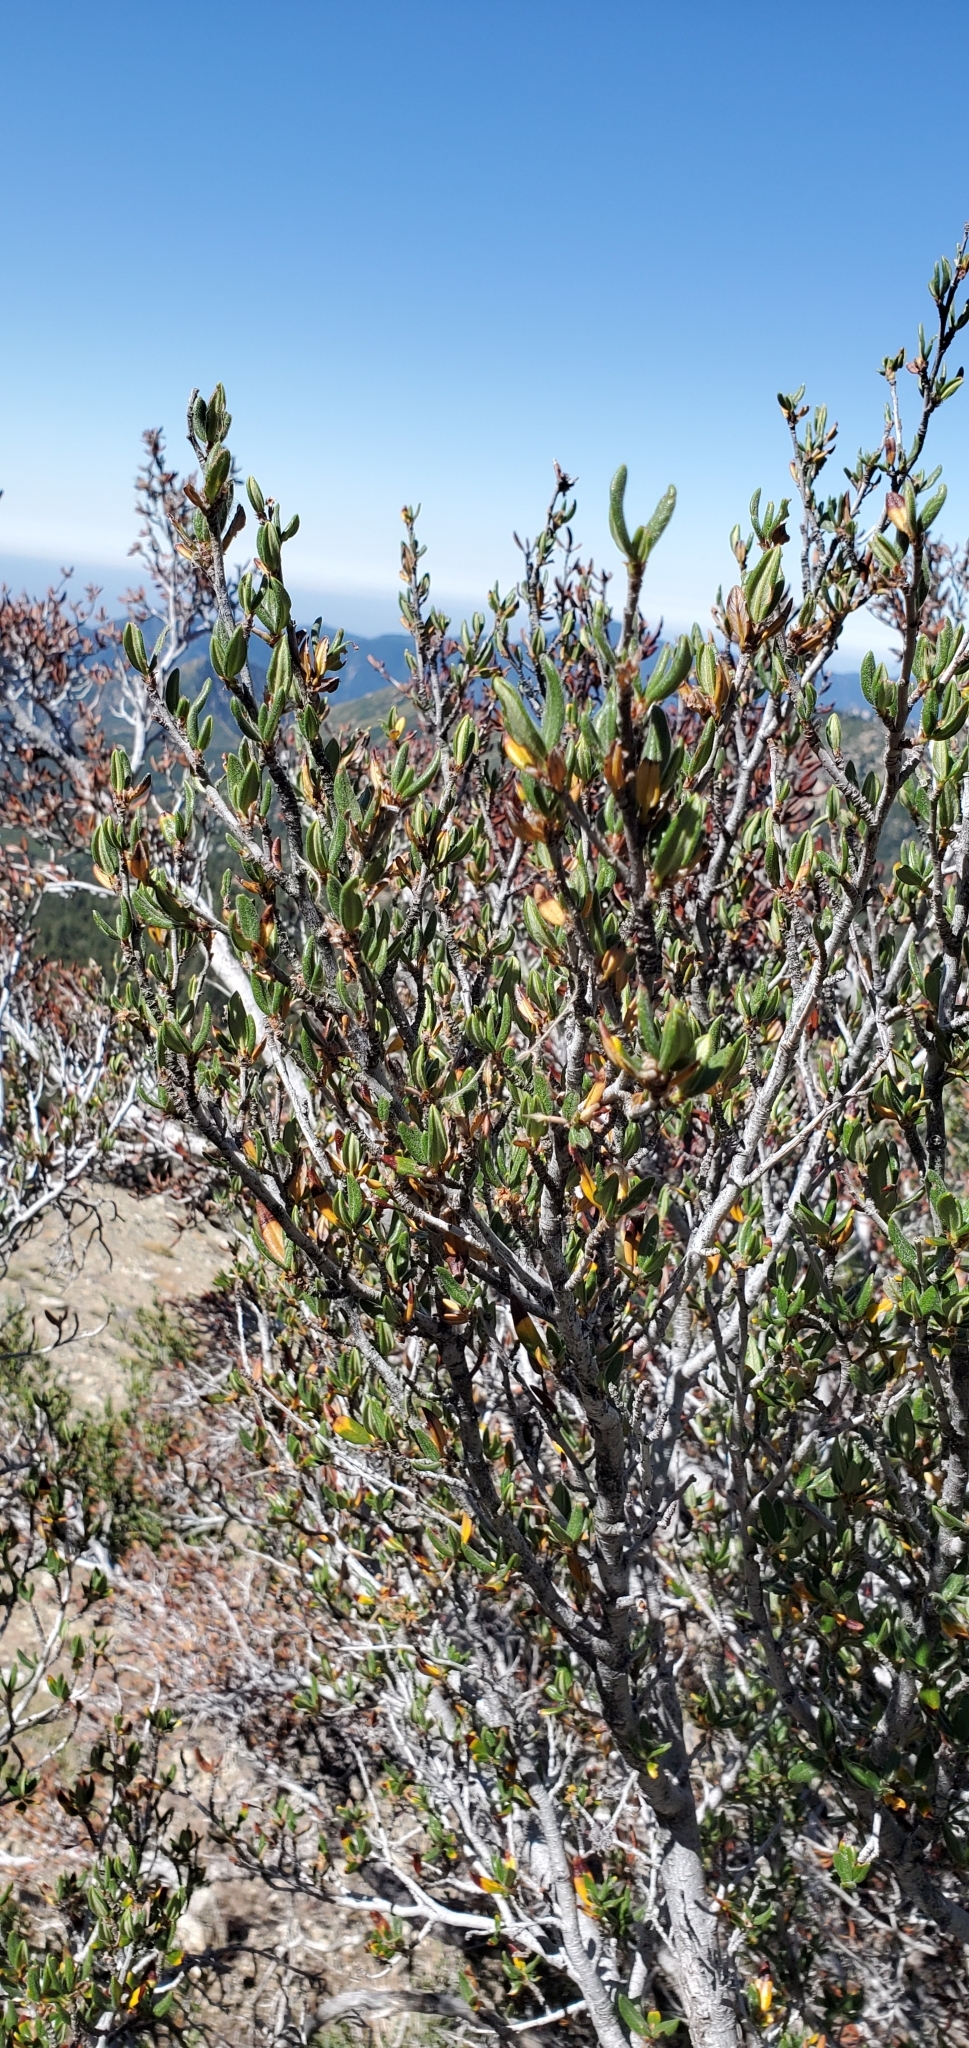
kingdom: Plantae
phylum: Tracheophyta
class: Magnoliopsida
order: Rosales
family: Rosaceae
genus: Cercocarpus
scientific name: Cercocarpus ledifolius
